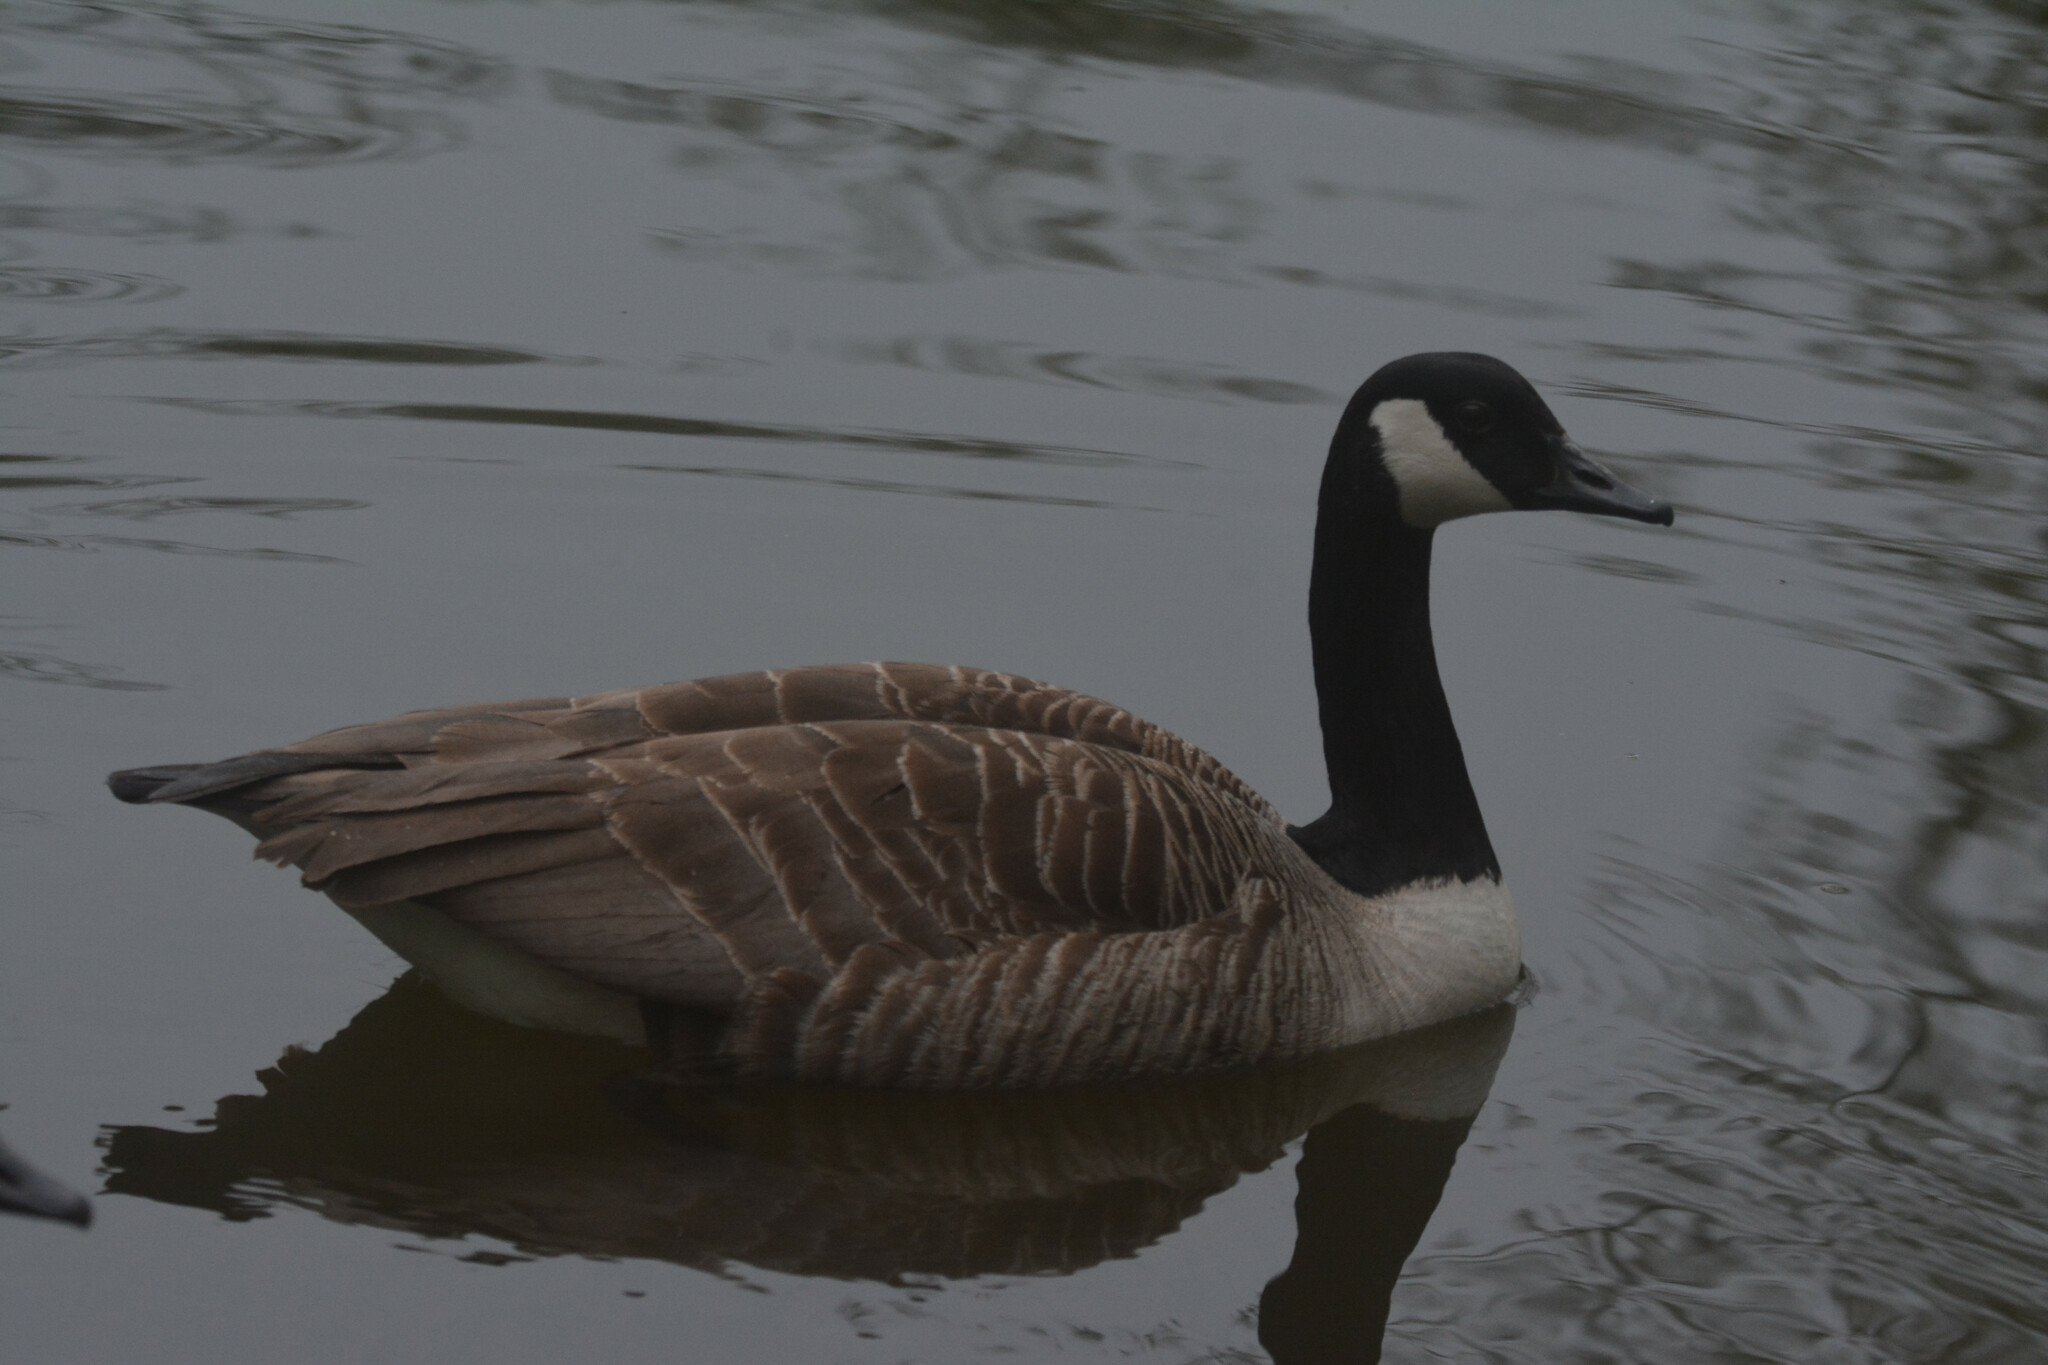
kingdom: Animalia
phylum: Chordata
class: Aves
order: Anseriformes
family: Anatidae
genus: Branta
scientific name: Branta canadensis
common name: Canada goose
